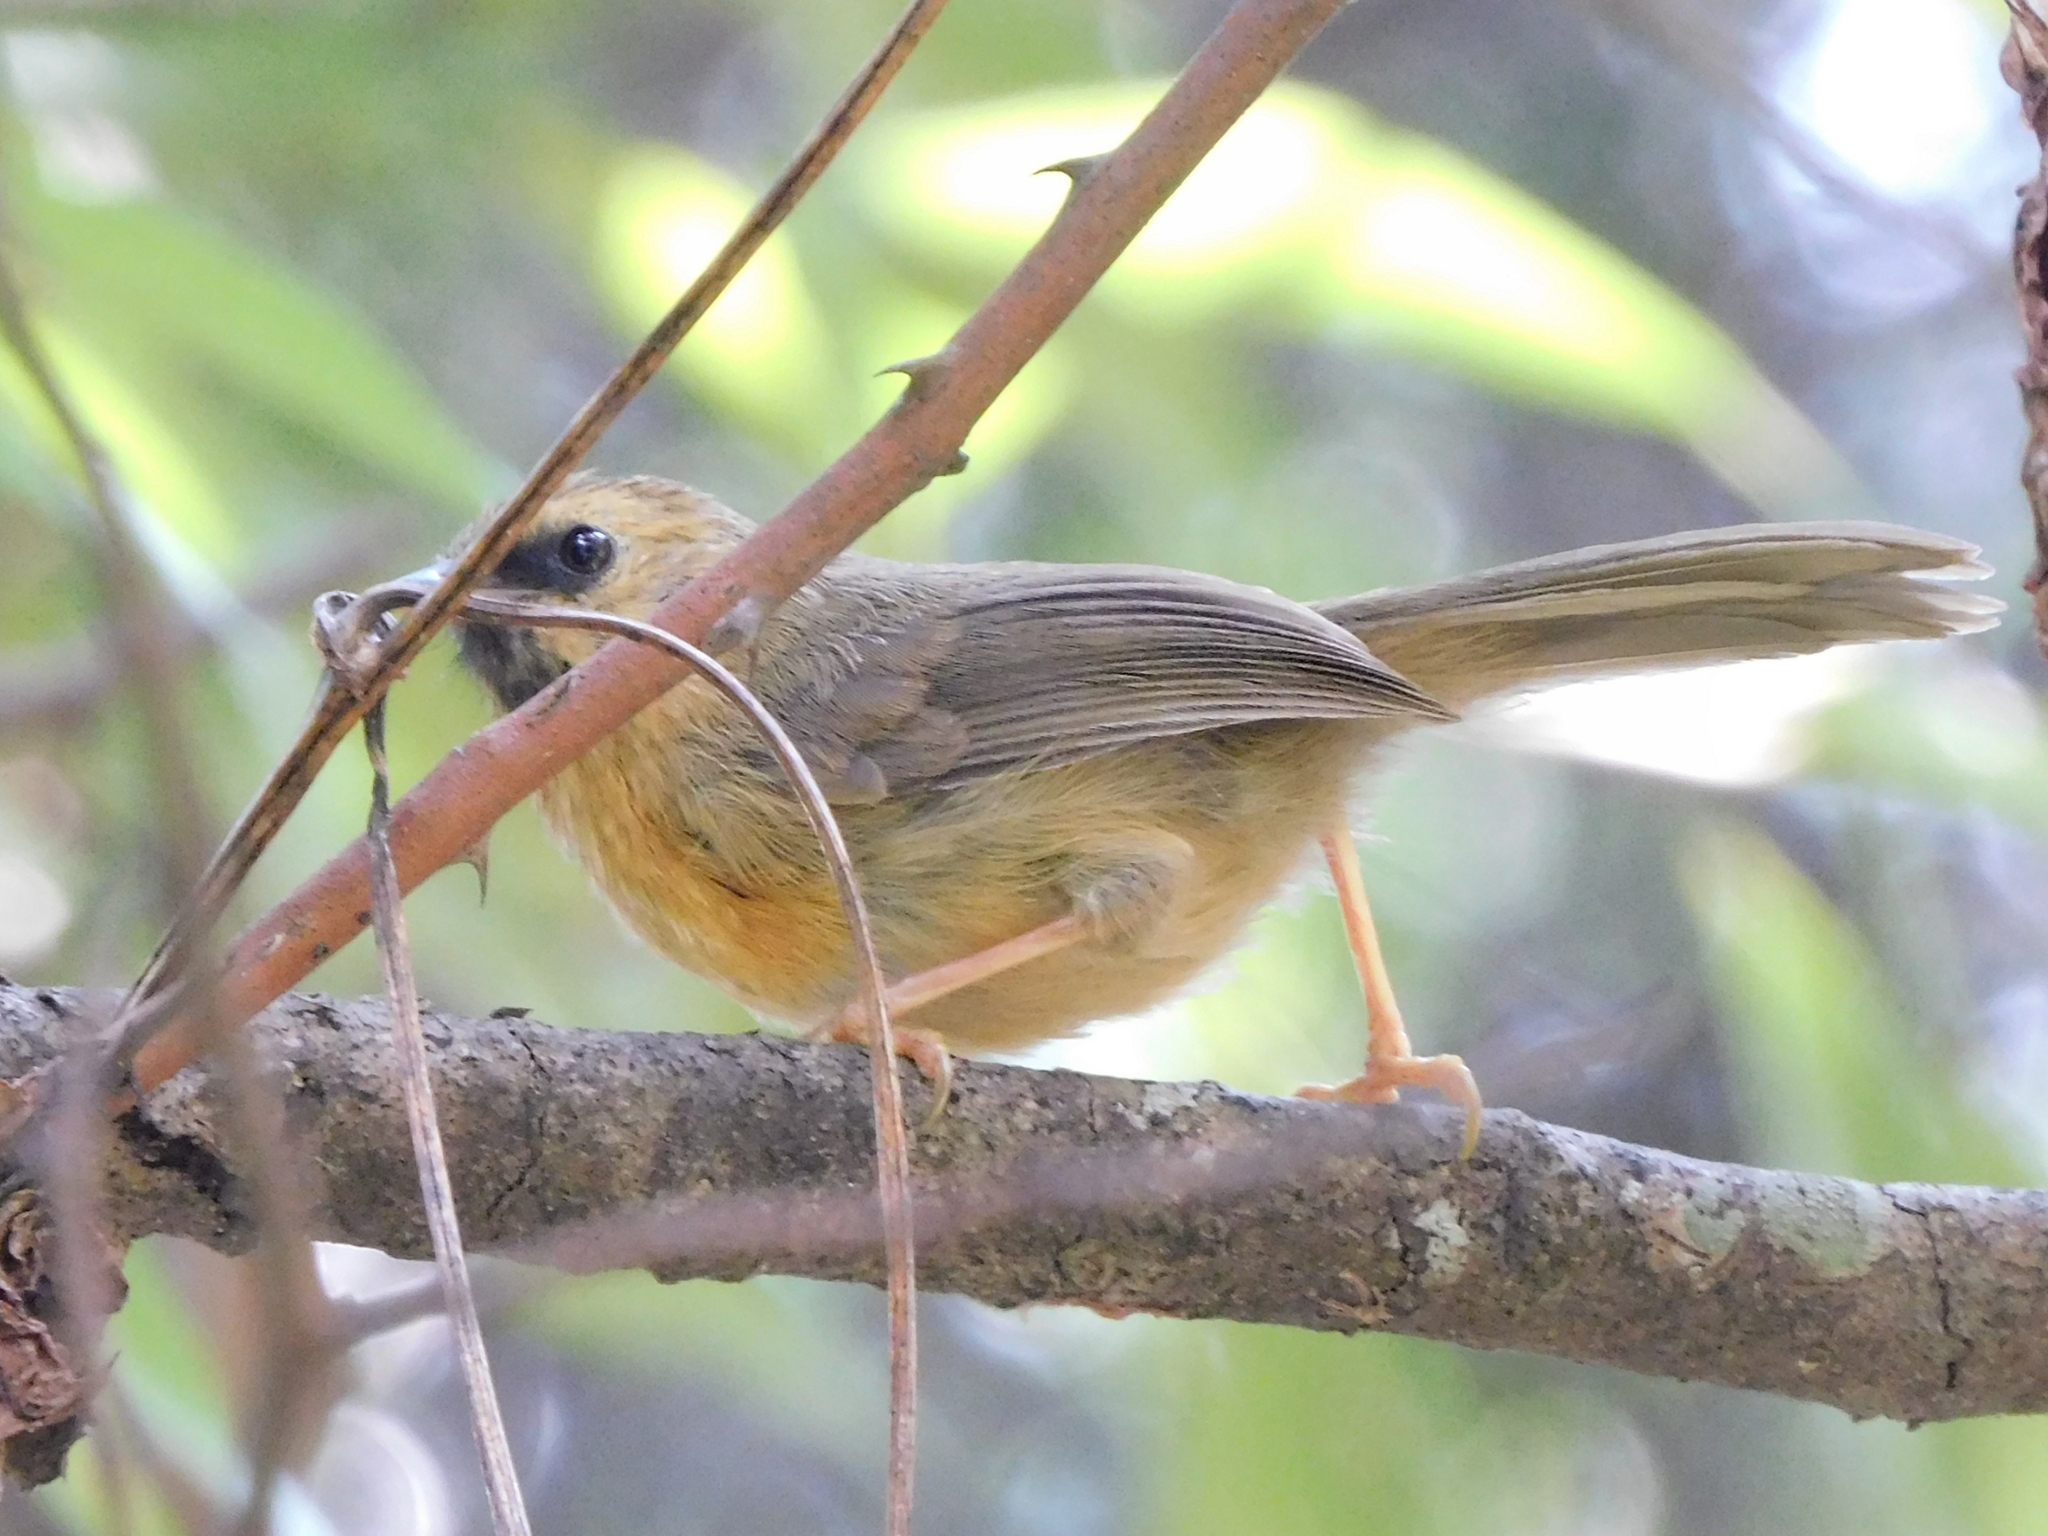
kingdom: Animalia
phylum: Chordata
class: Aves
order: Passeriformes
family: Timaliidae
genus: Stachyridopsis
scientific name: Stachyridopsis pyrrhops
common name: Black-chinned babbler
